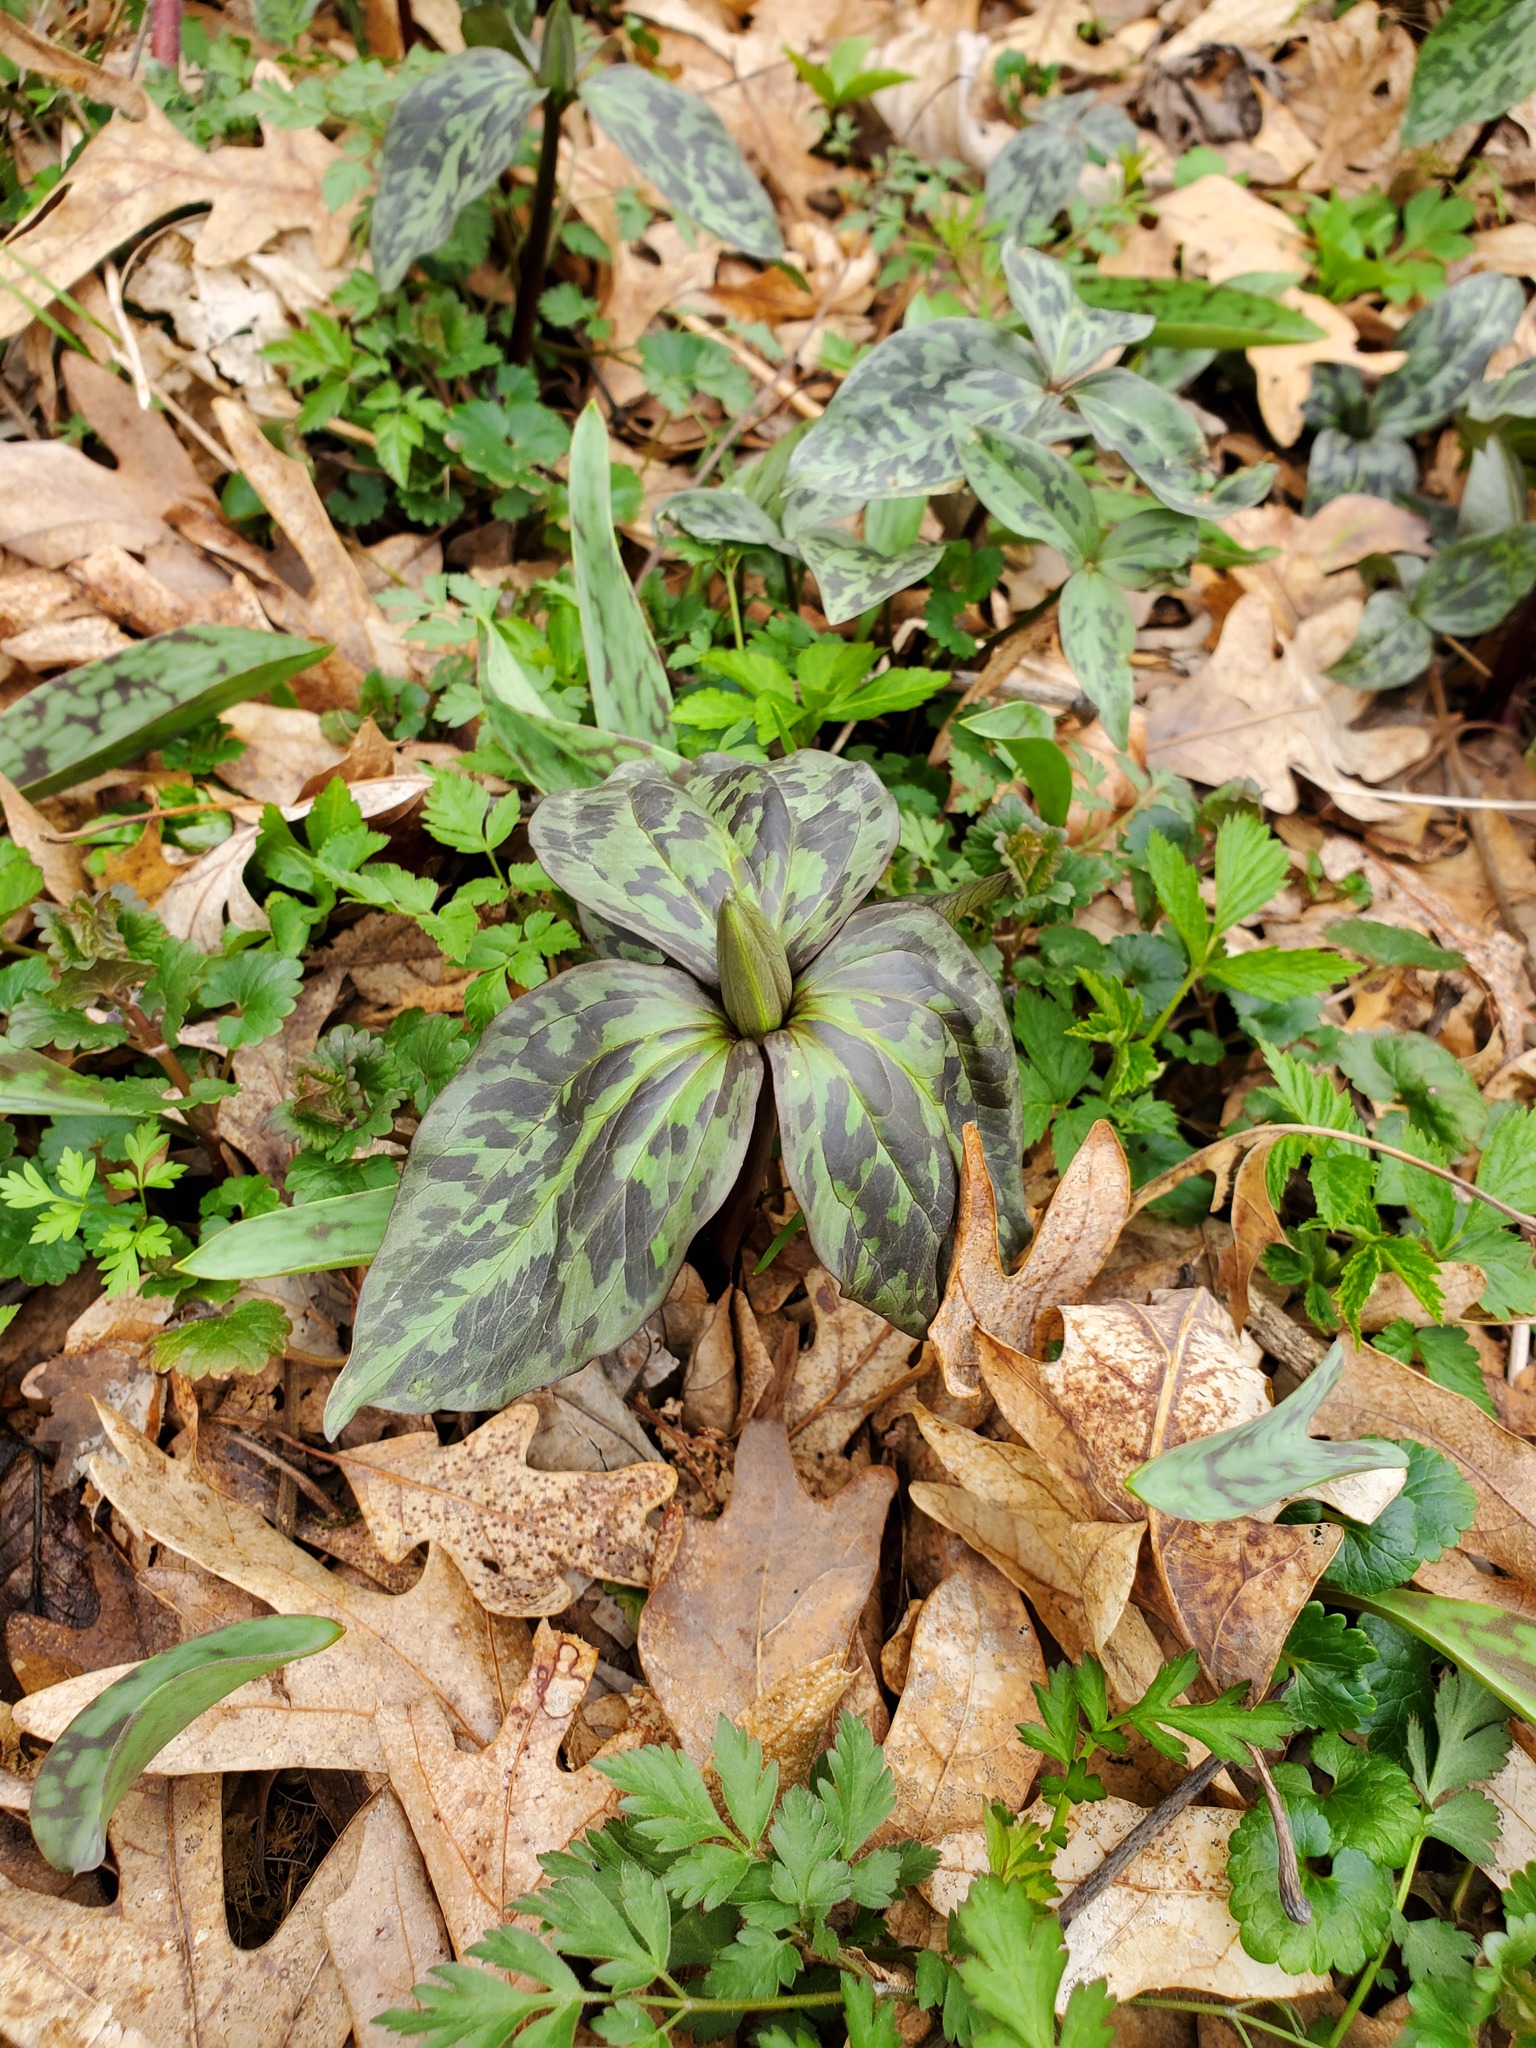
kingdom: Plantae
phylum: Tracheophyta
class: Liliopsida
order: Liliales
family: Melanthiaceae
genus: Trillium
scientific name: Trillium recurvatum
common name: Bloody butcher
